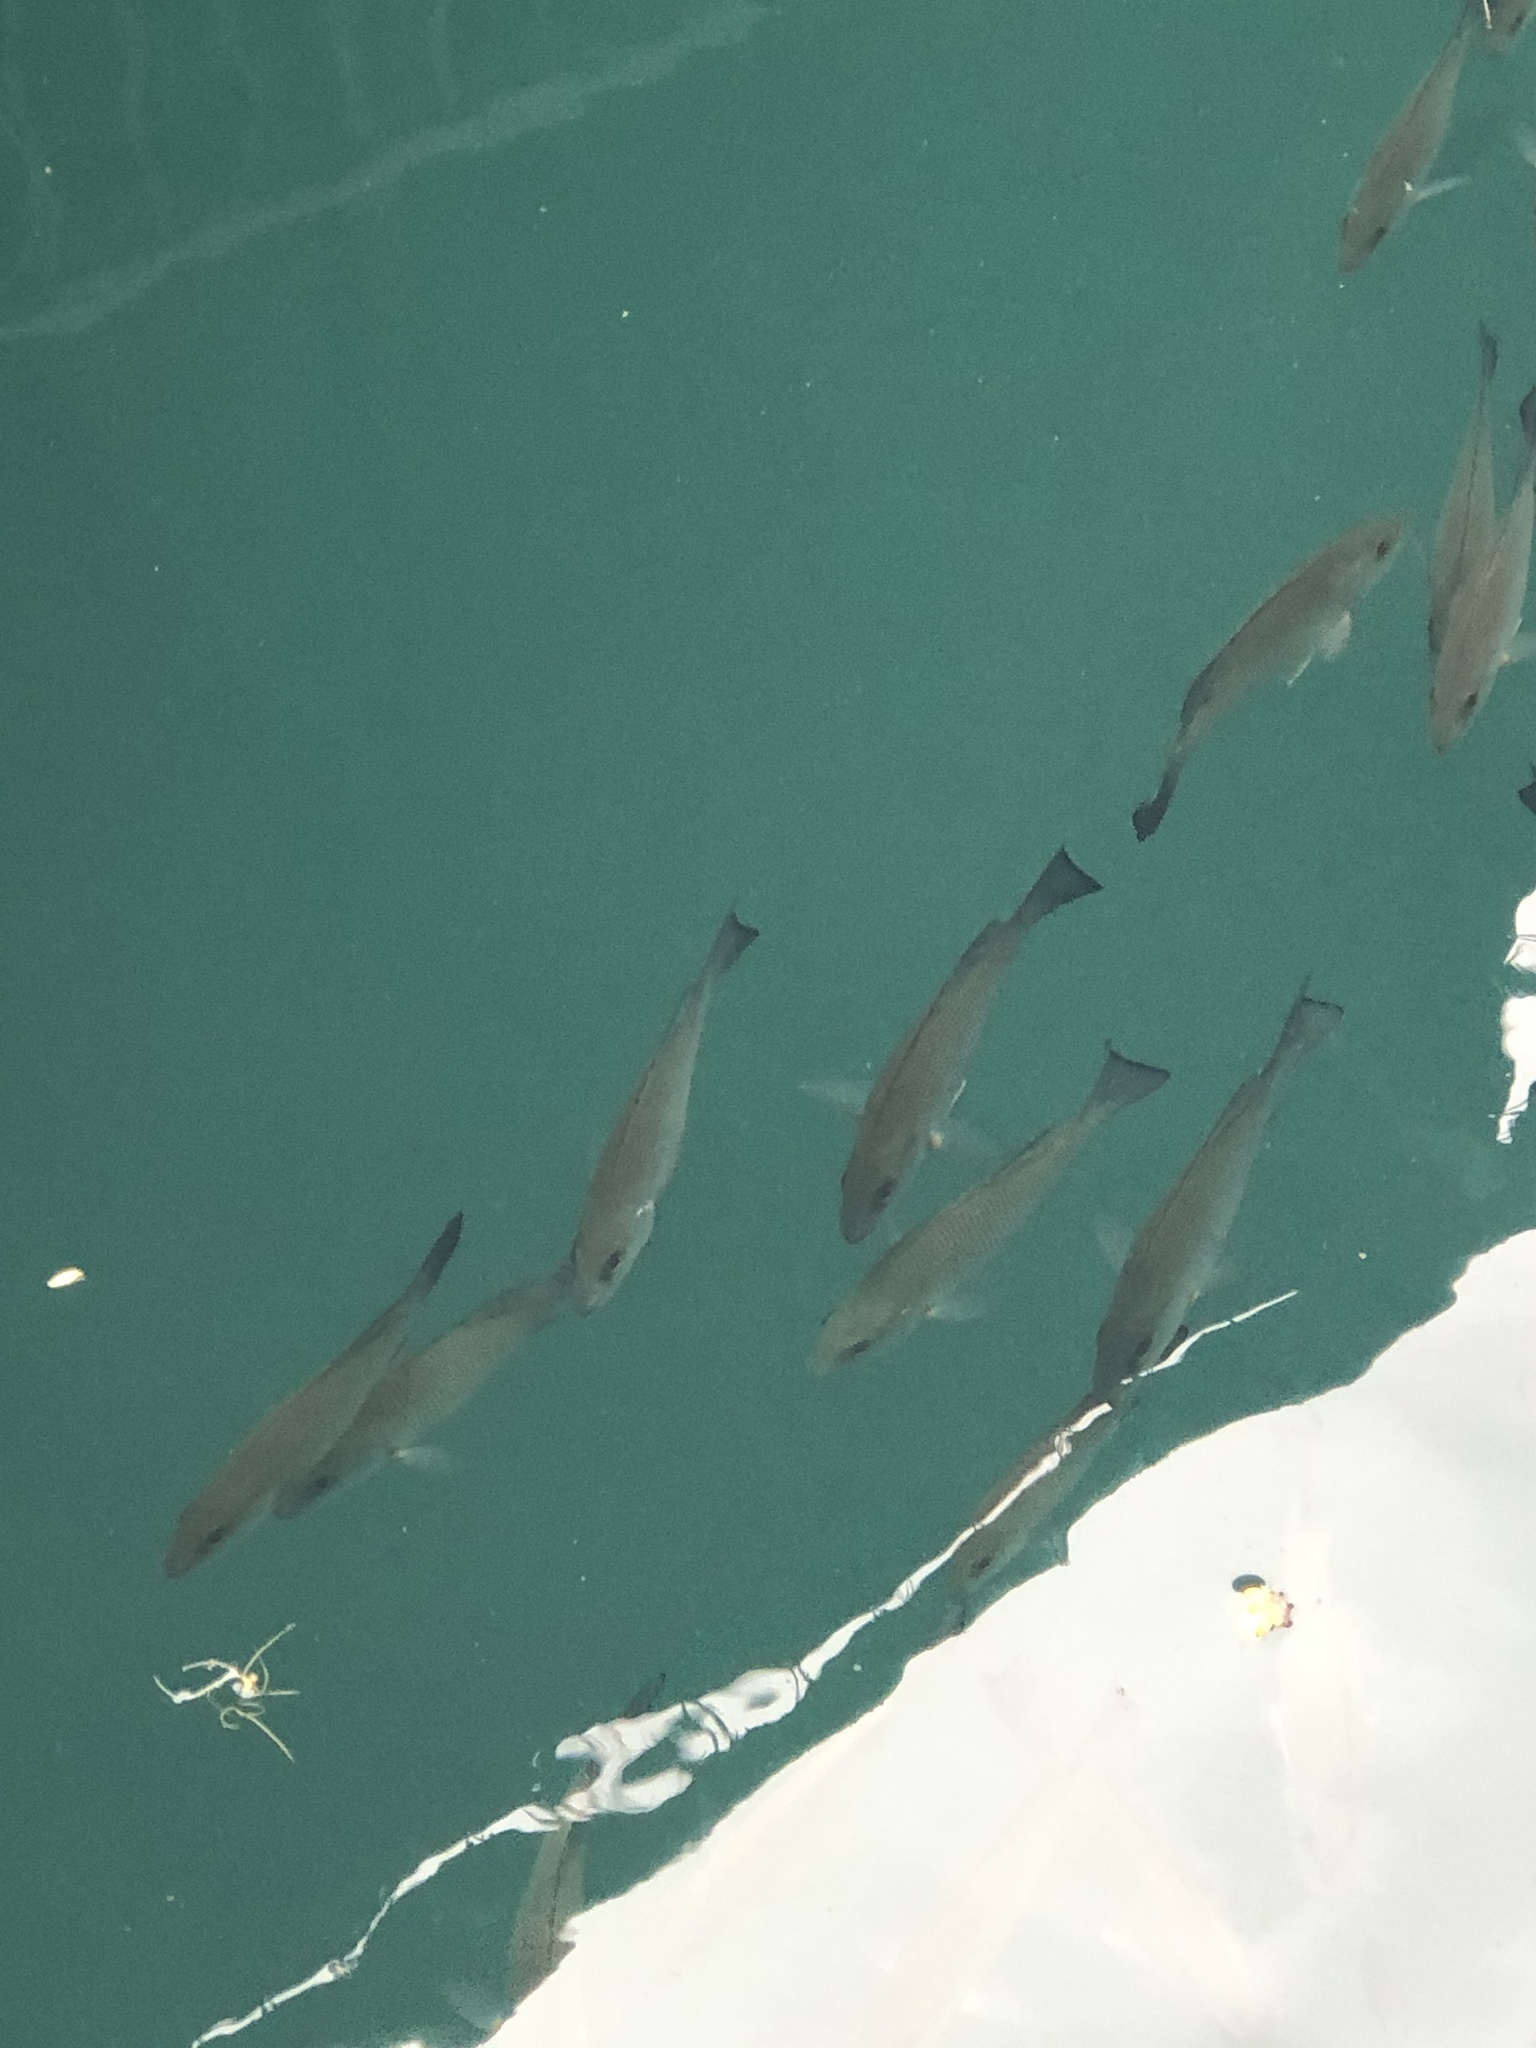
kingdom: Animalia
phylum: Chordata
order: Perciformes
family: Lutjanidae
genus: Lutjanus
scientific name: Lutjanus griseus
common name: Gray snapper
